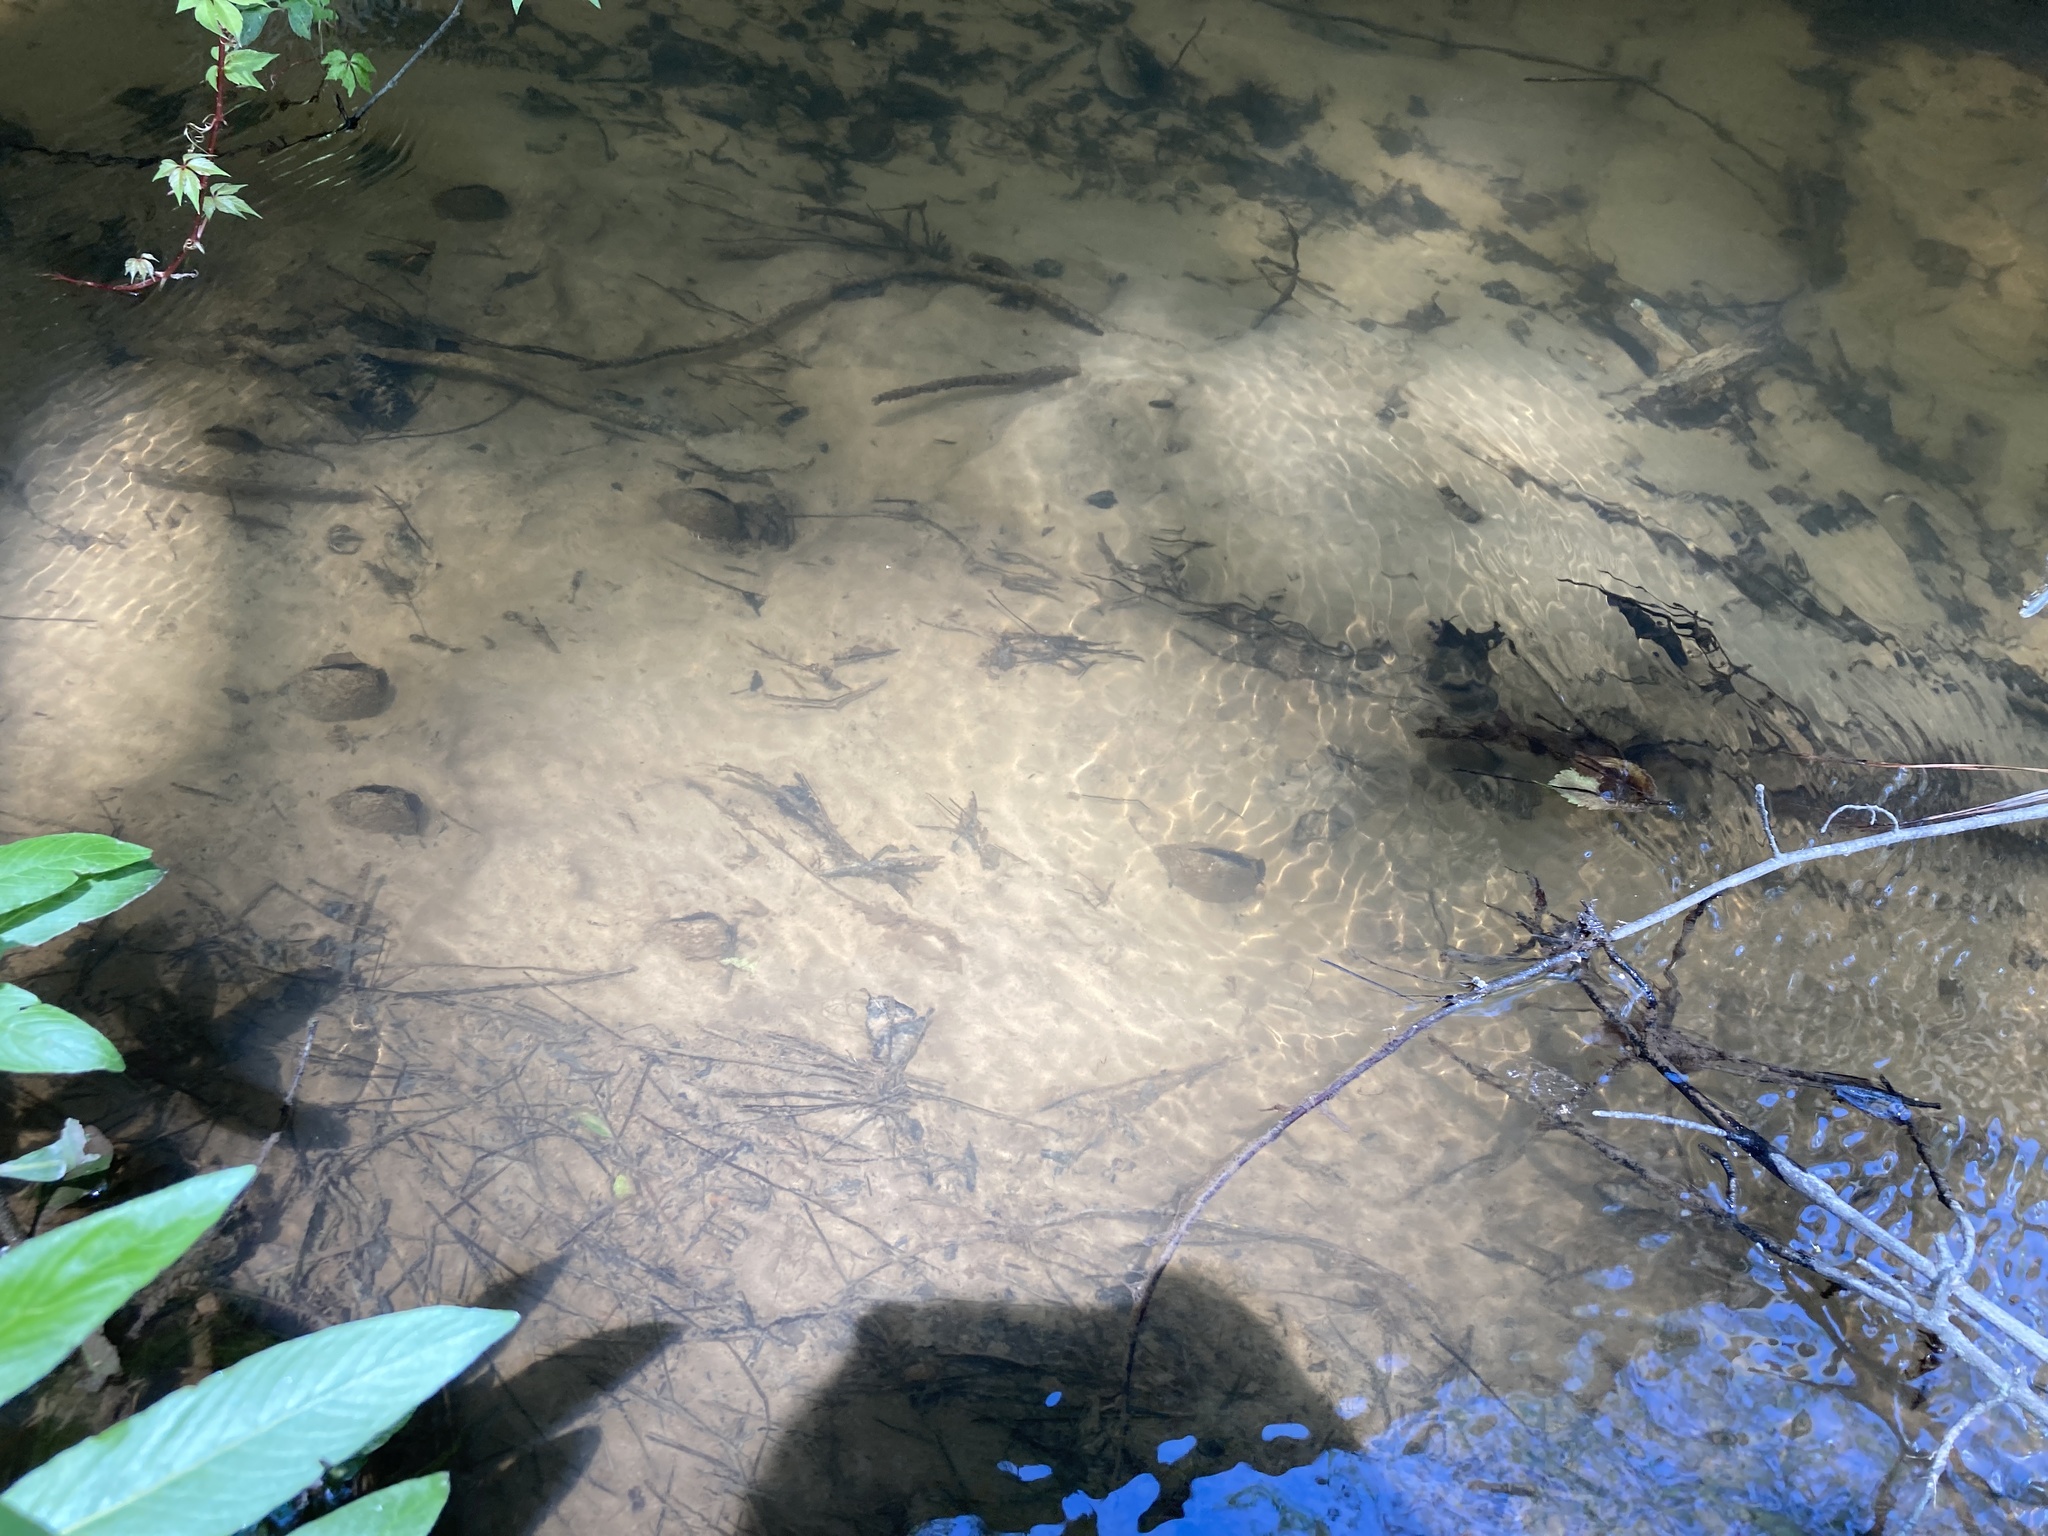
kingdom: Animalia
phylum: Mollusca
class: Bivalvia
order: Unionida
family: Margaritiferidae
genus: Margaritifera
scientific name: Margaritifera hembeli
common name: Louisiana pearlshell
